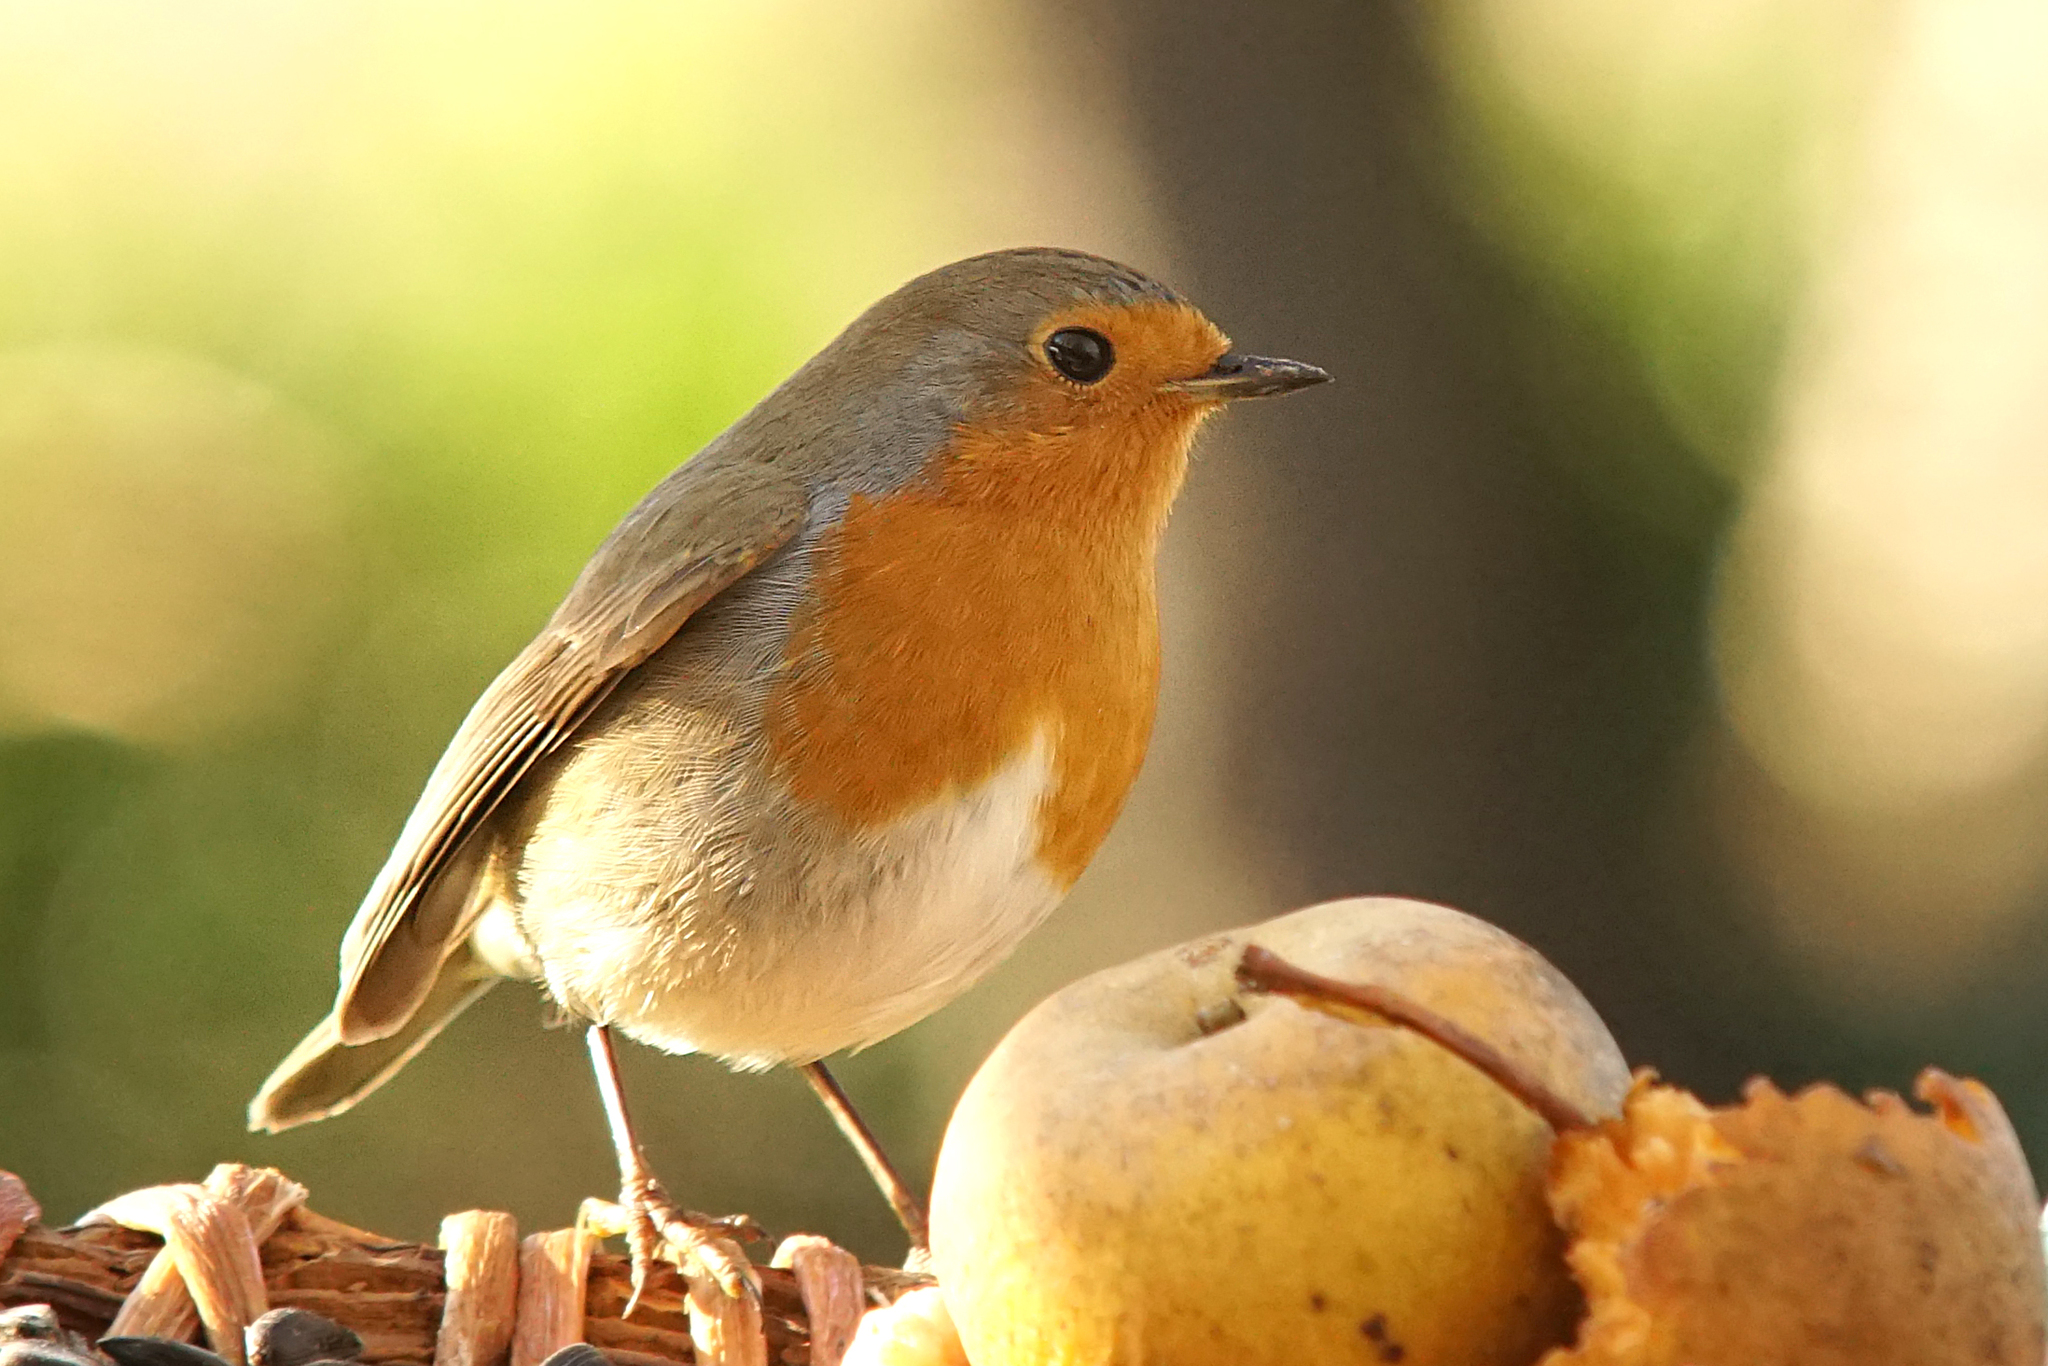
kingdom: Animalia
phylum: Chordata
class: Aves
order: Passeriformes
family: Muscicapidae
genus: Erithacus
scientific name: Erithacus rubecula
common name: European robin
